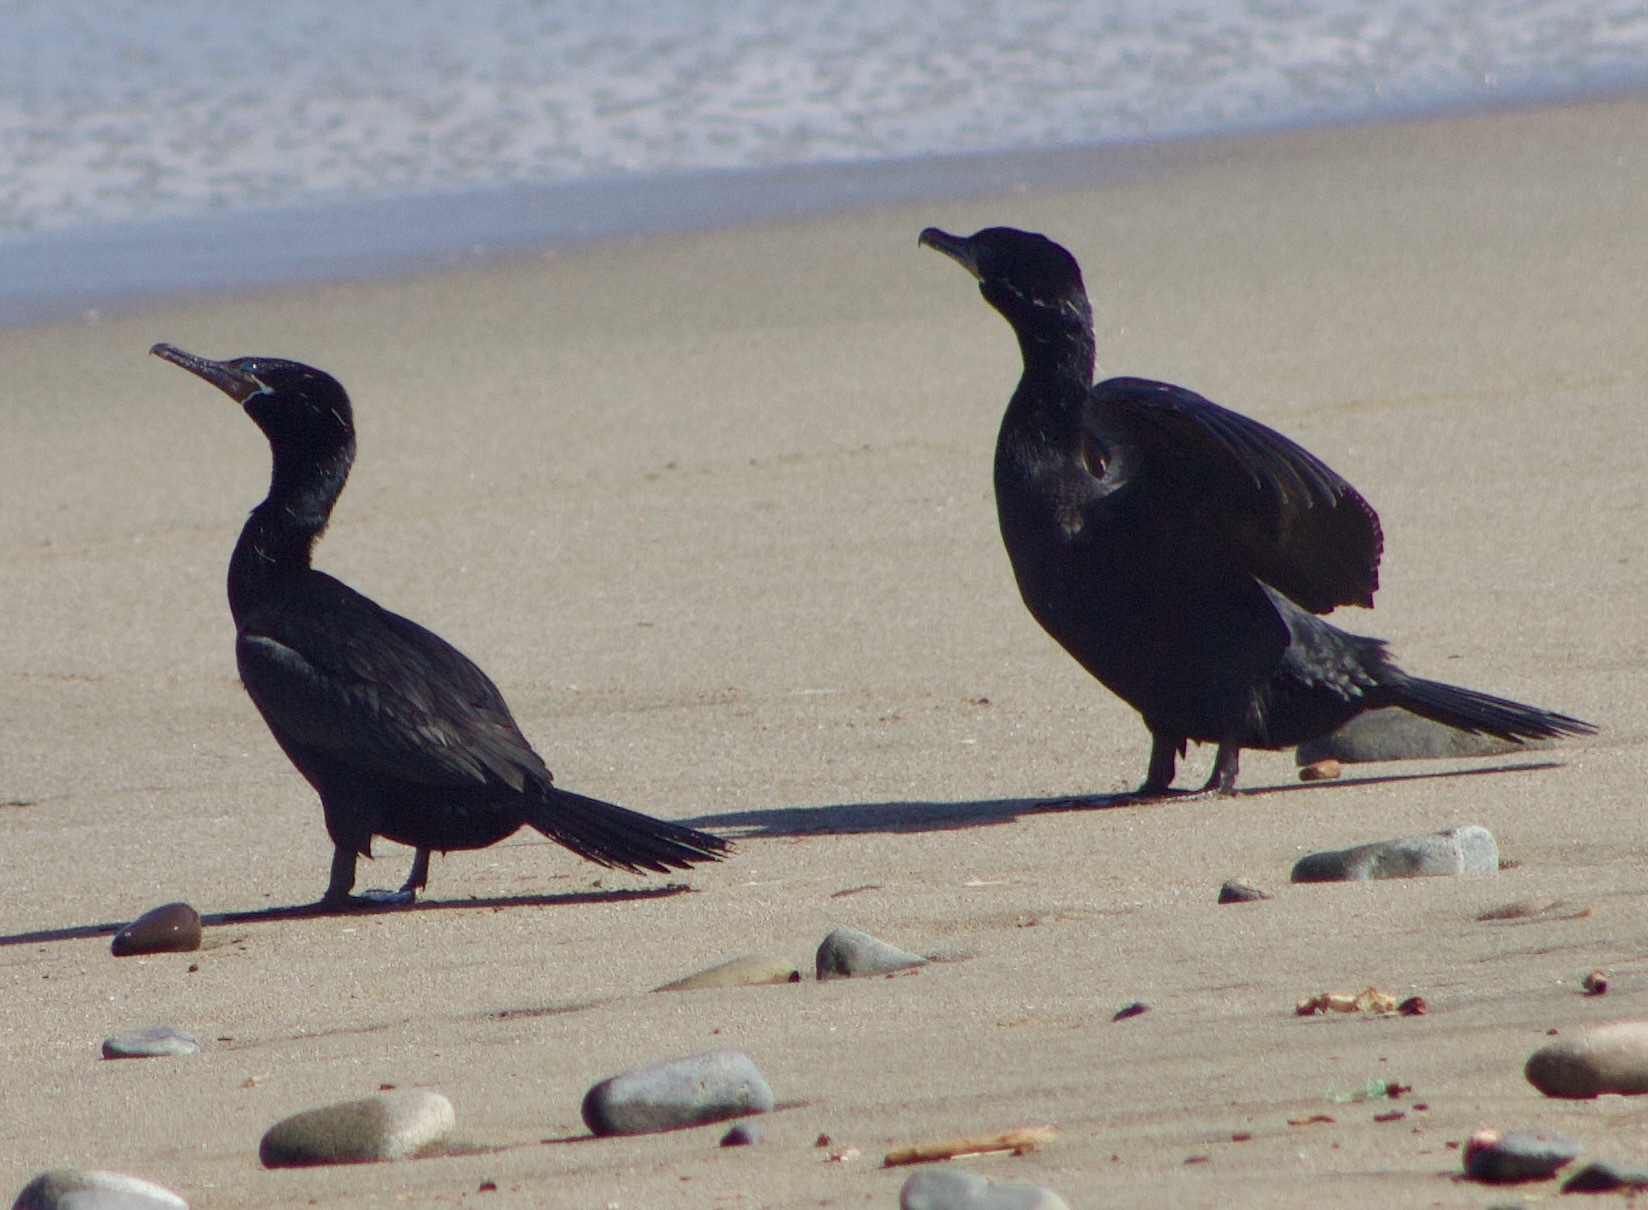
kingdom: Animalia
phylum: Chordata
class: Aves
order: Suliformes
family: Phalacrocoracidae
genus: Phalacrocorax
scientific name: Phalacrocorax brasilianus
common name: Neotropic cormorant
